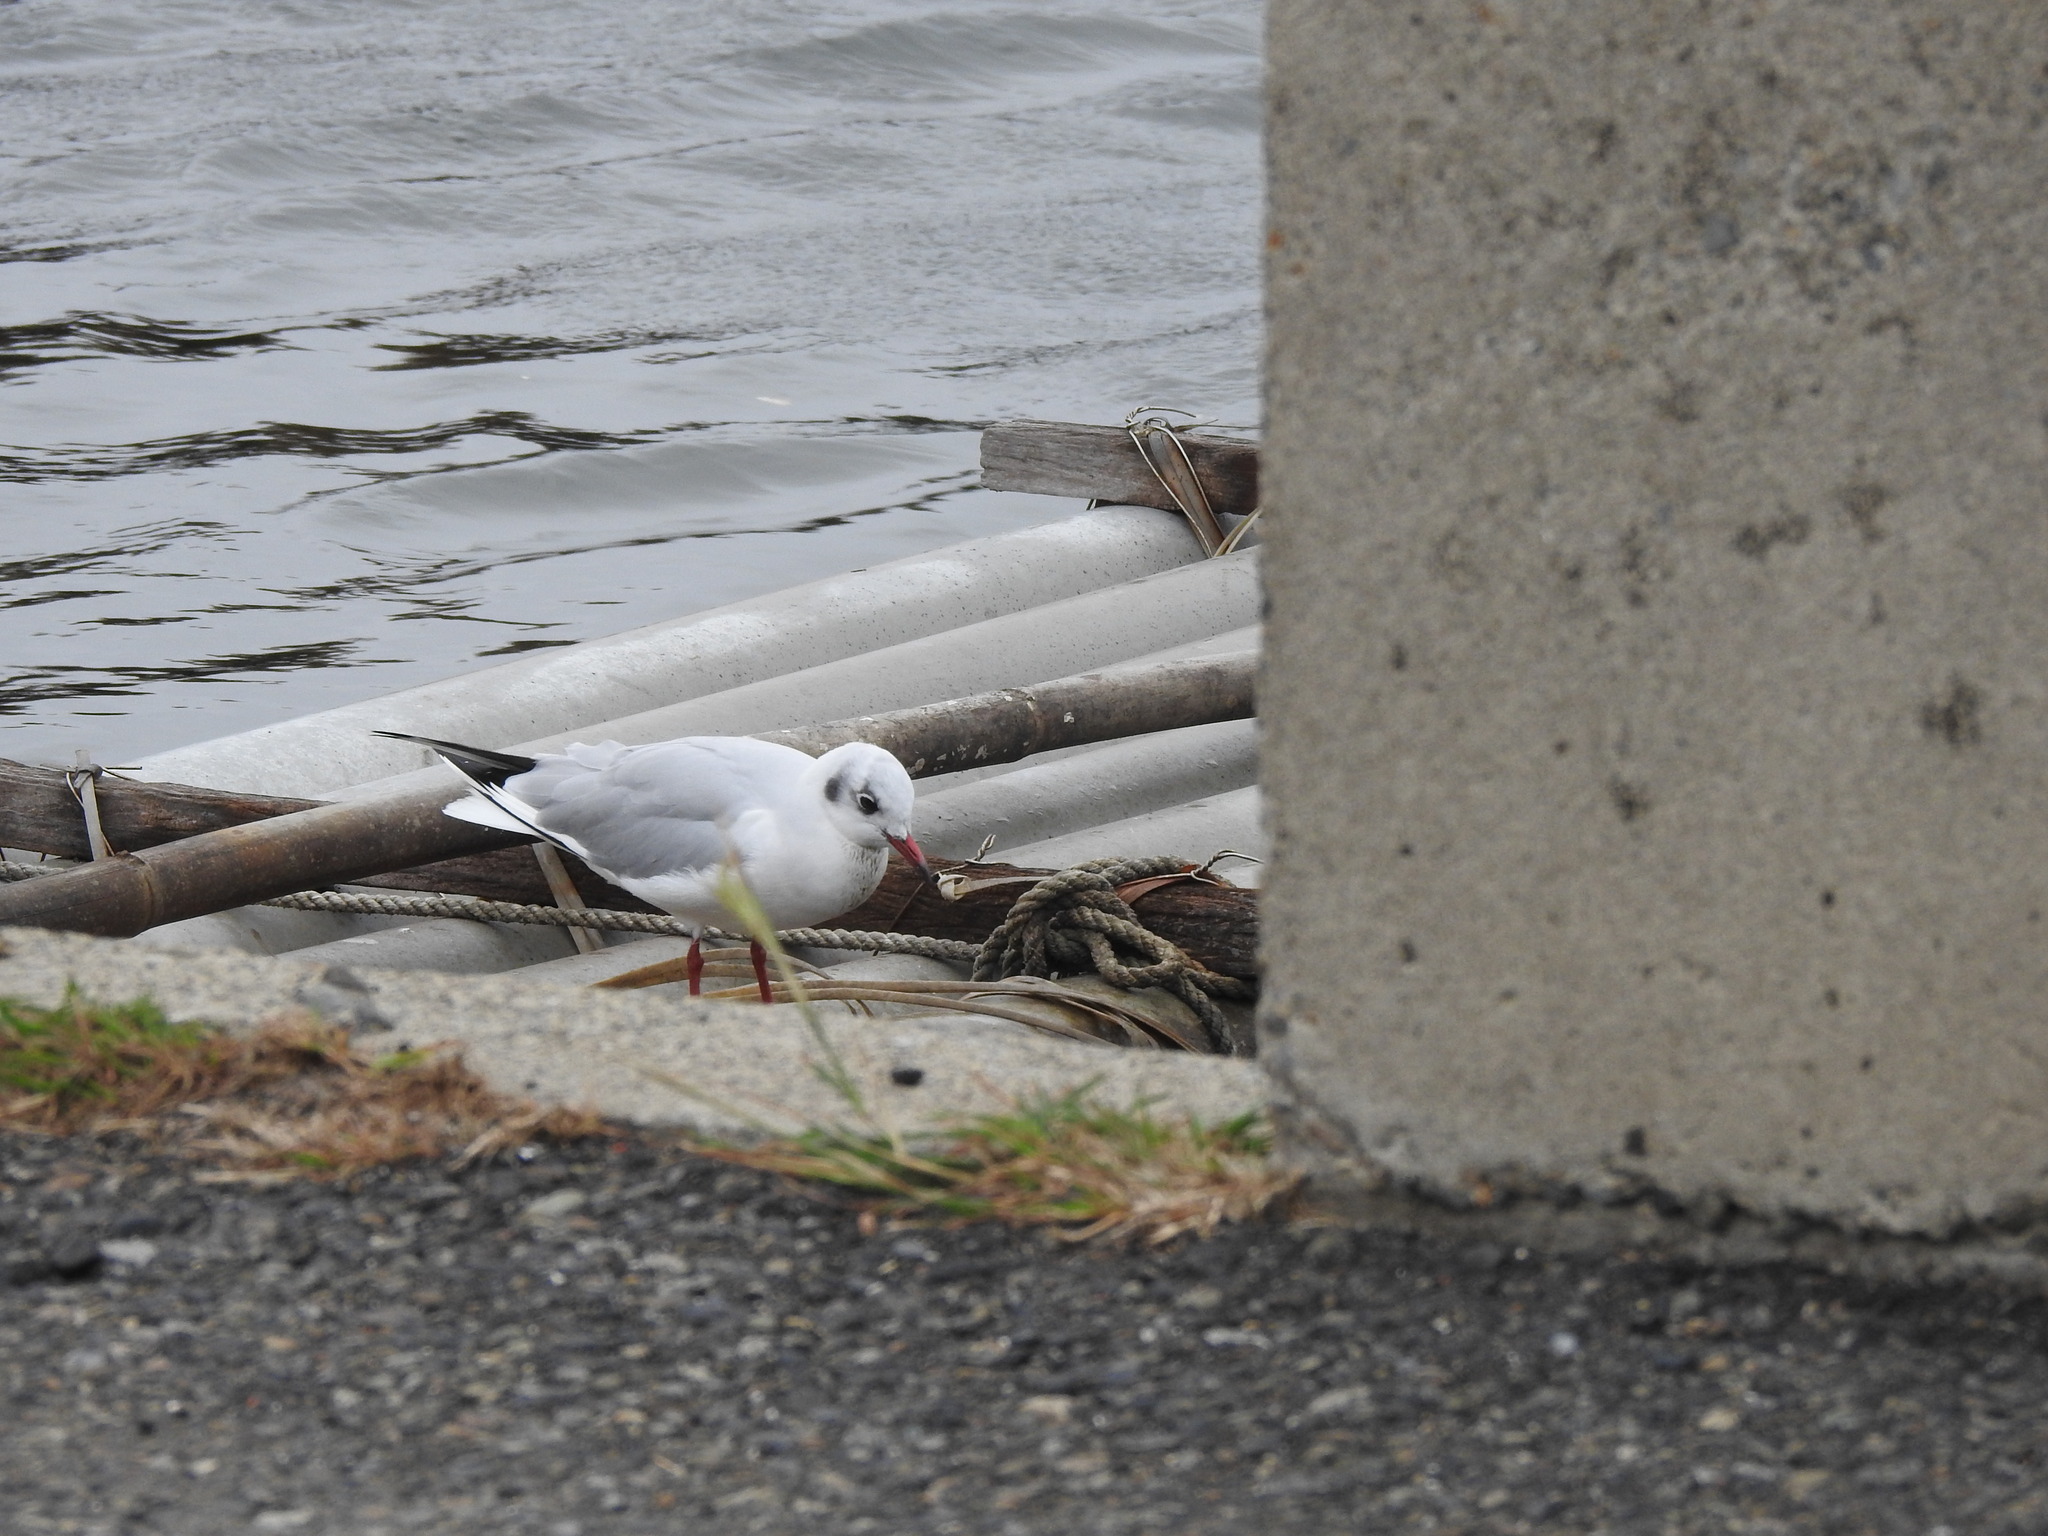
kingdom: Animalia
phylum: Chordata
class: Aves
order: Charadriiformes
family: Laridae
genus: Chroicocephalus
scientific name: Chroicocephalus ridibundus
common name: Black-headed gull
